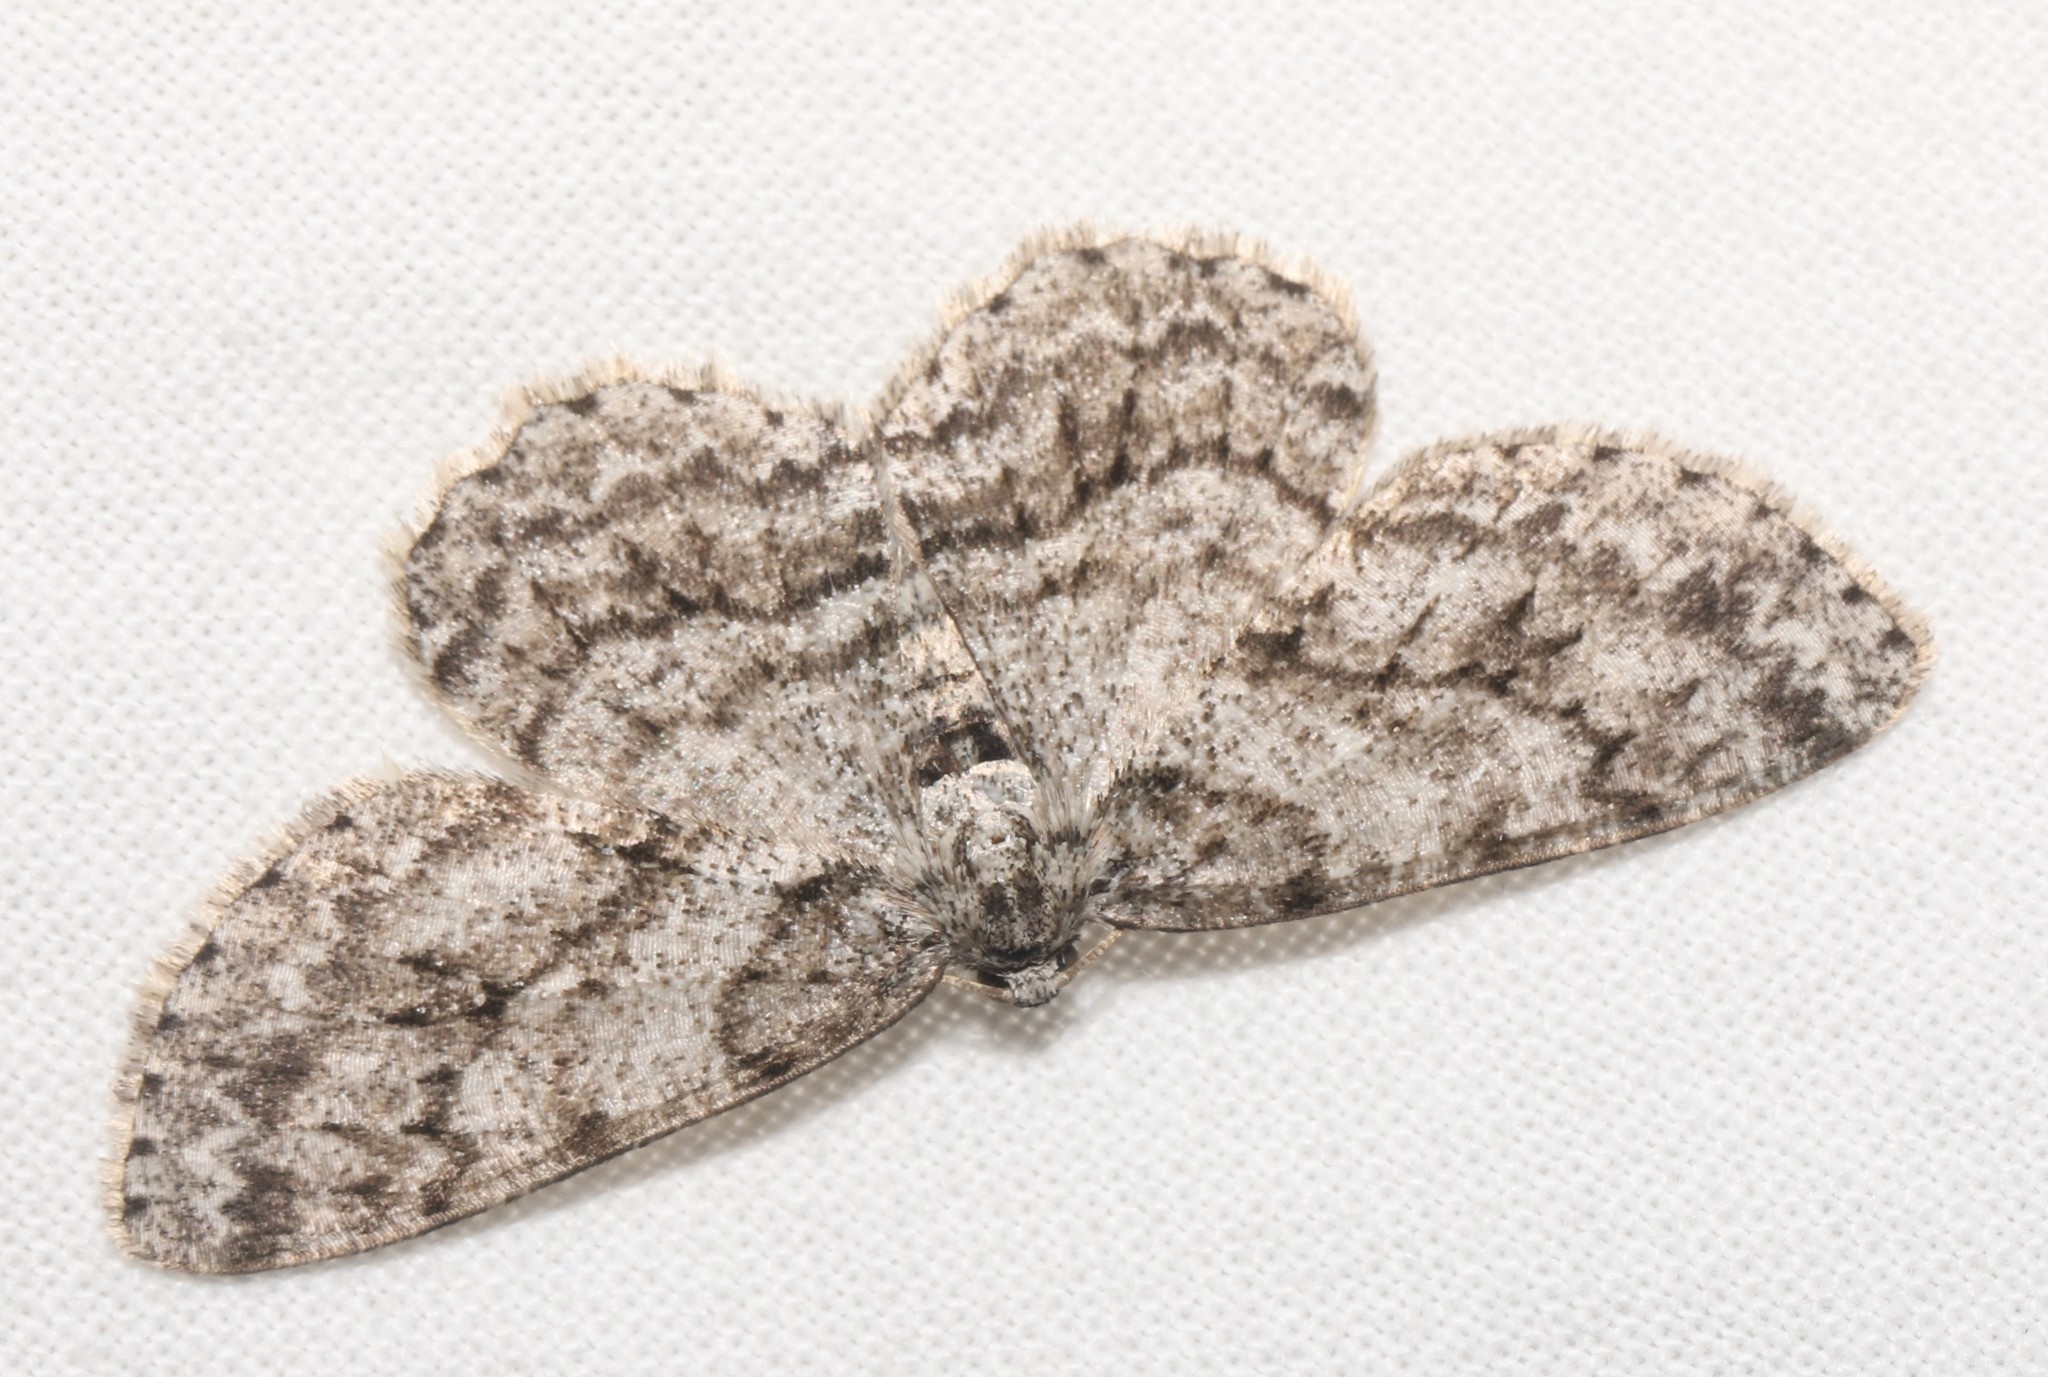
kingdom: Animalia
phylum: Arthropoda
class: Insecta
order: Lepidoptera
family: Geometridae
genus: Ectropis
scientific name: Ectropis crepuscularia
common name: Engrailed
